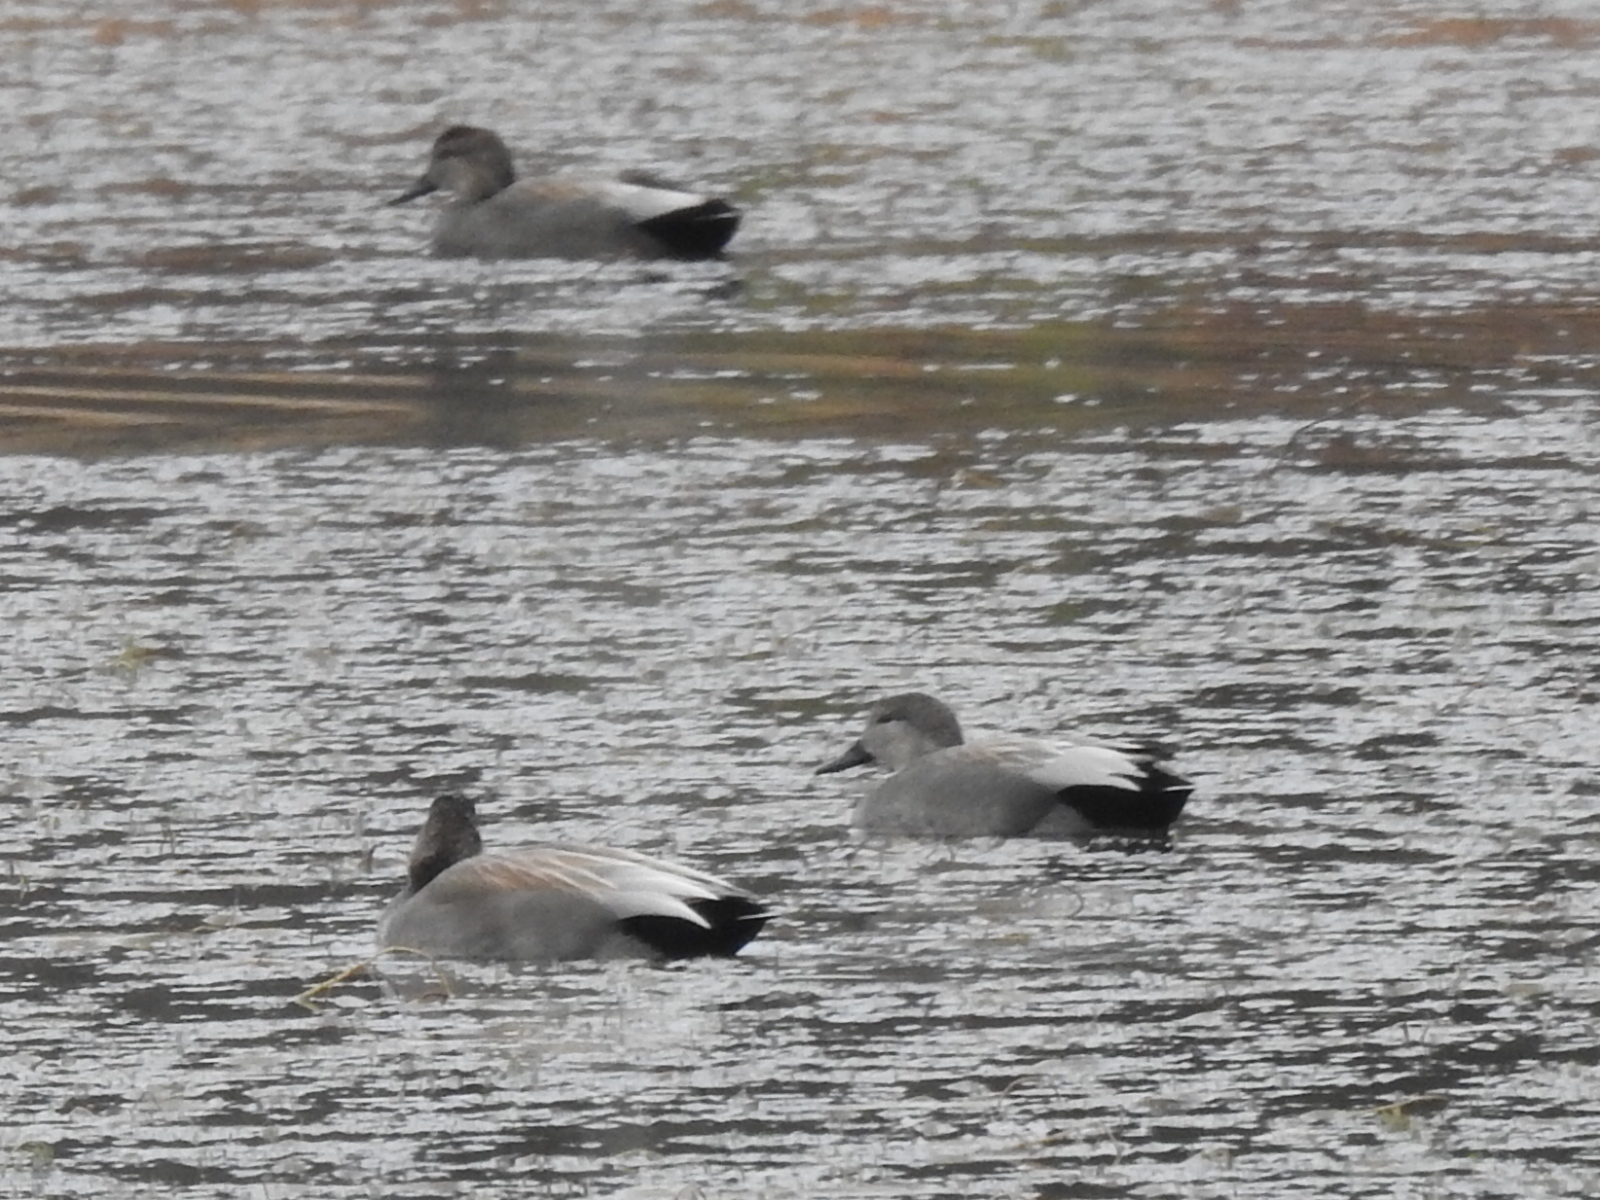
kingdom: Animalia
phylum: Chordata
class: Aves
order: Anseriformes
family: Anatidae
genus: Mareca
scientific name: Mareca strepera
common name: Gadwall
